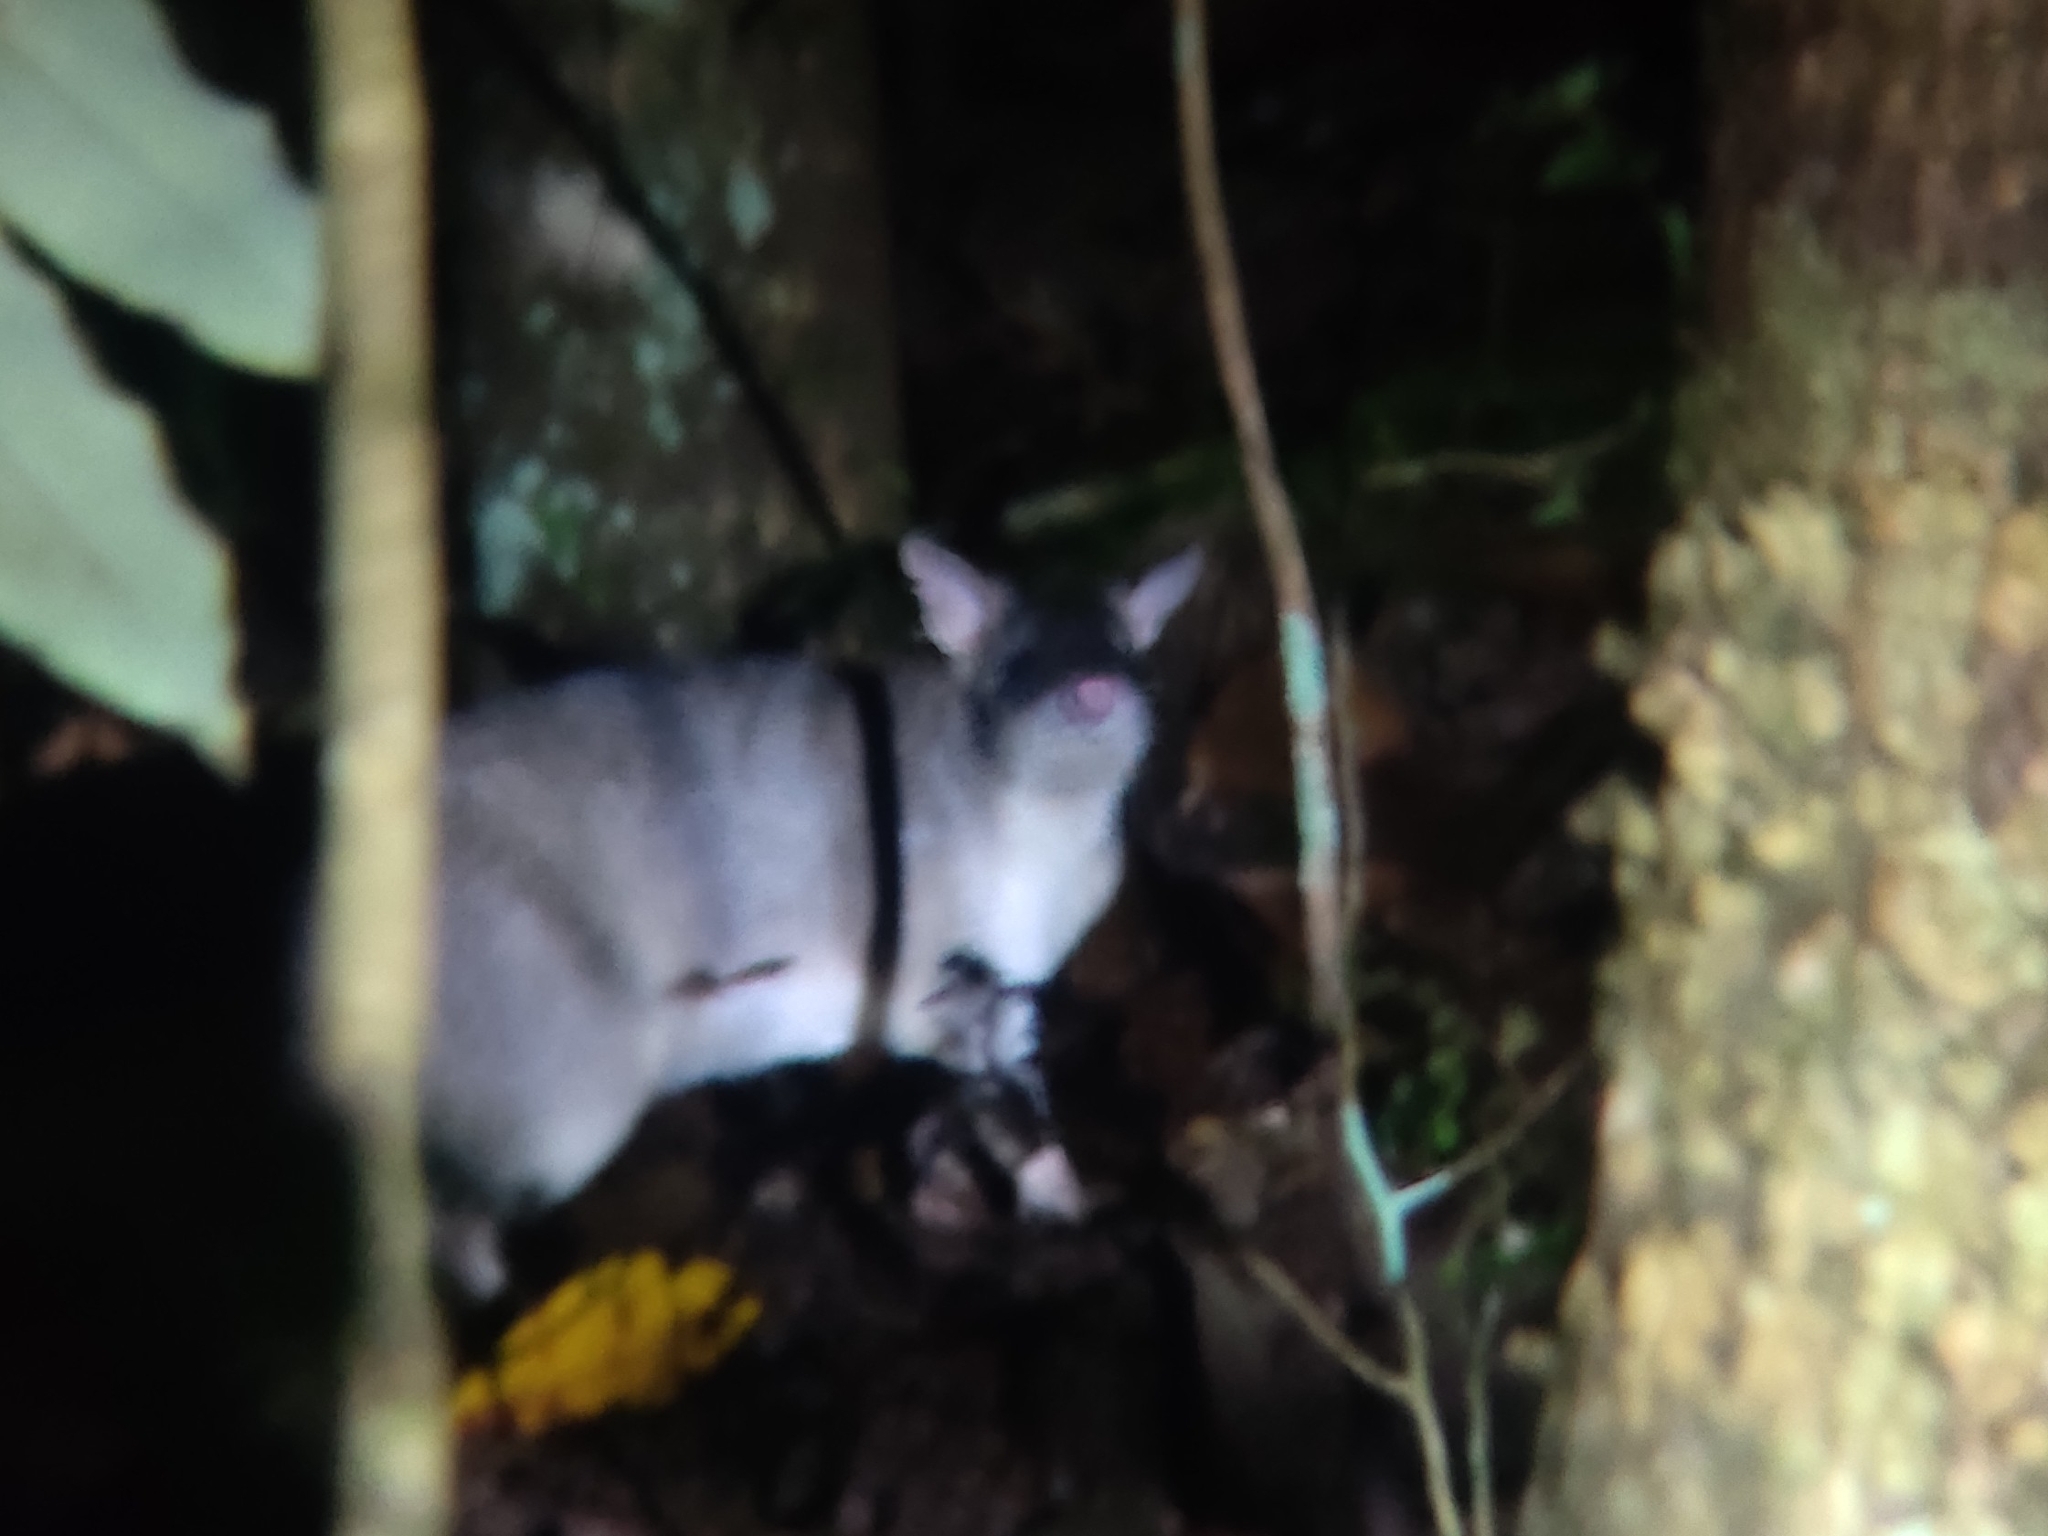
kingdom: Animalia
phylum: Chordata
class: Mammalia
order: Peramelemorphia
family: Peramelidae
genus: Perameles
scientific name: Perameles pallescens
